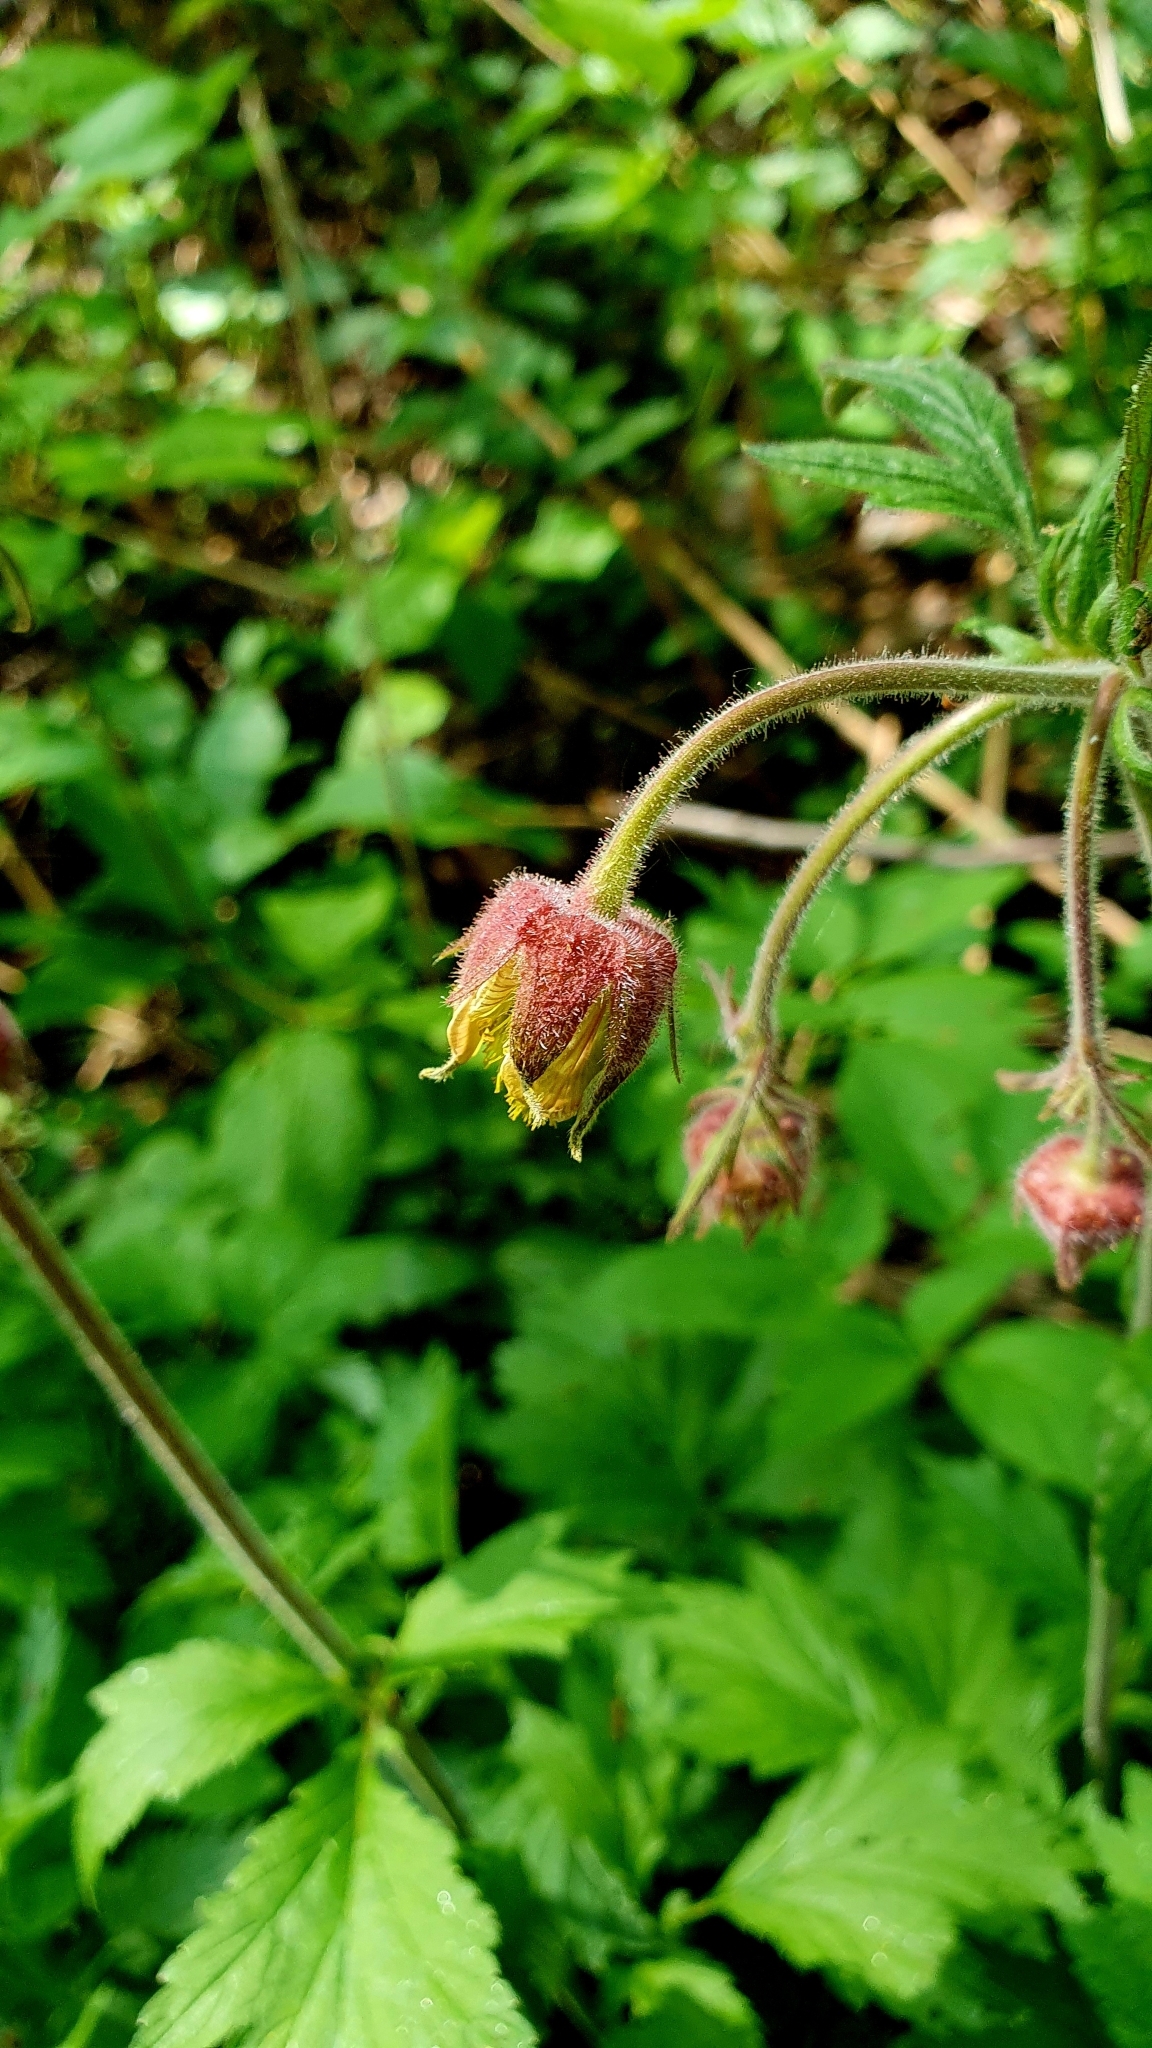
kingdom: Plantae
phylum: Tracheophyta
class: Magnoliopsida
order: Rosales
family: Rosaceae
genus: Geum
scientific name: Geum rivale
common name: Water avens
